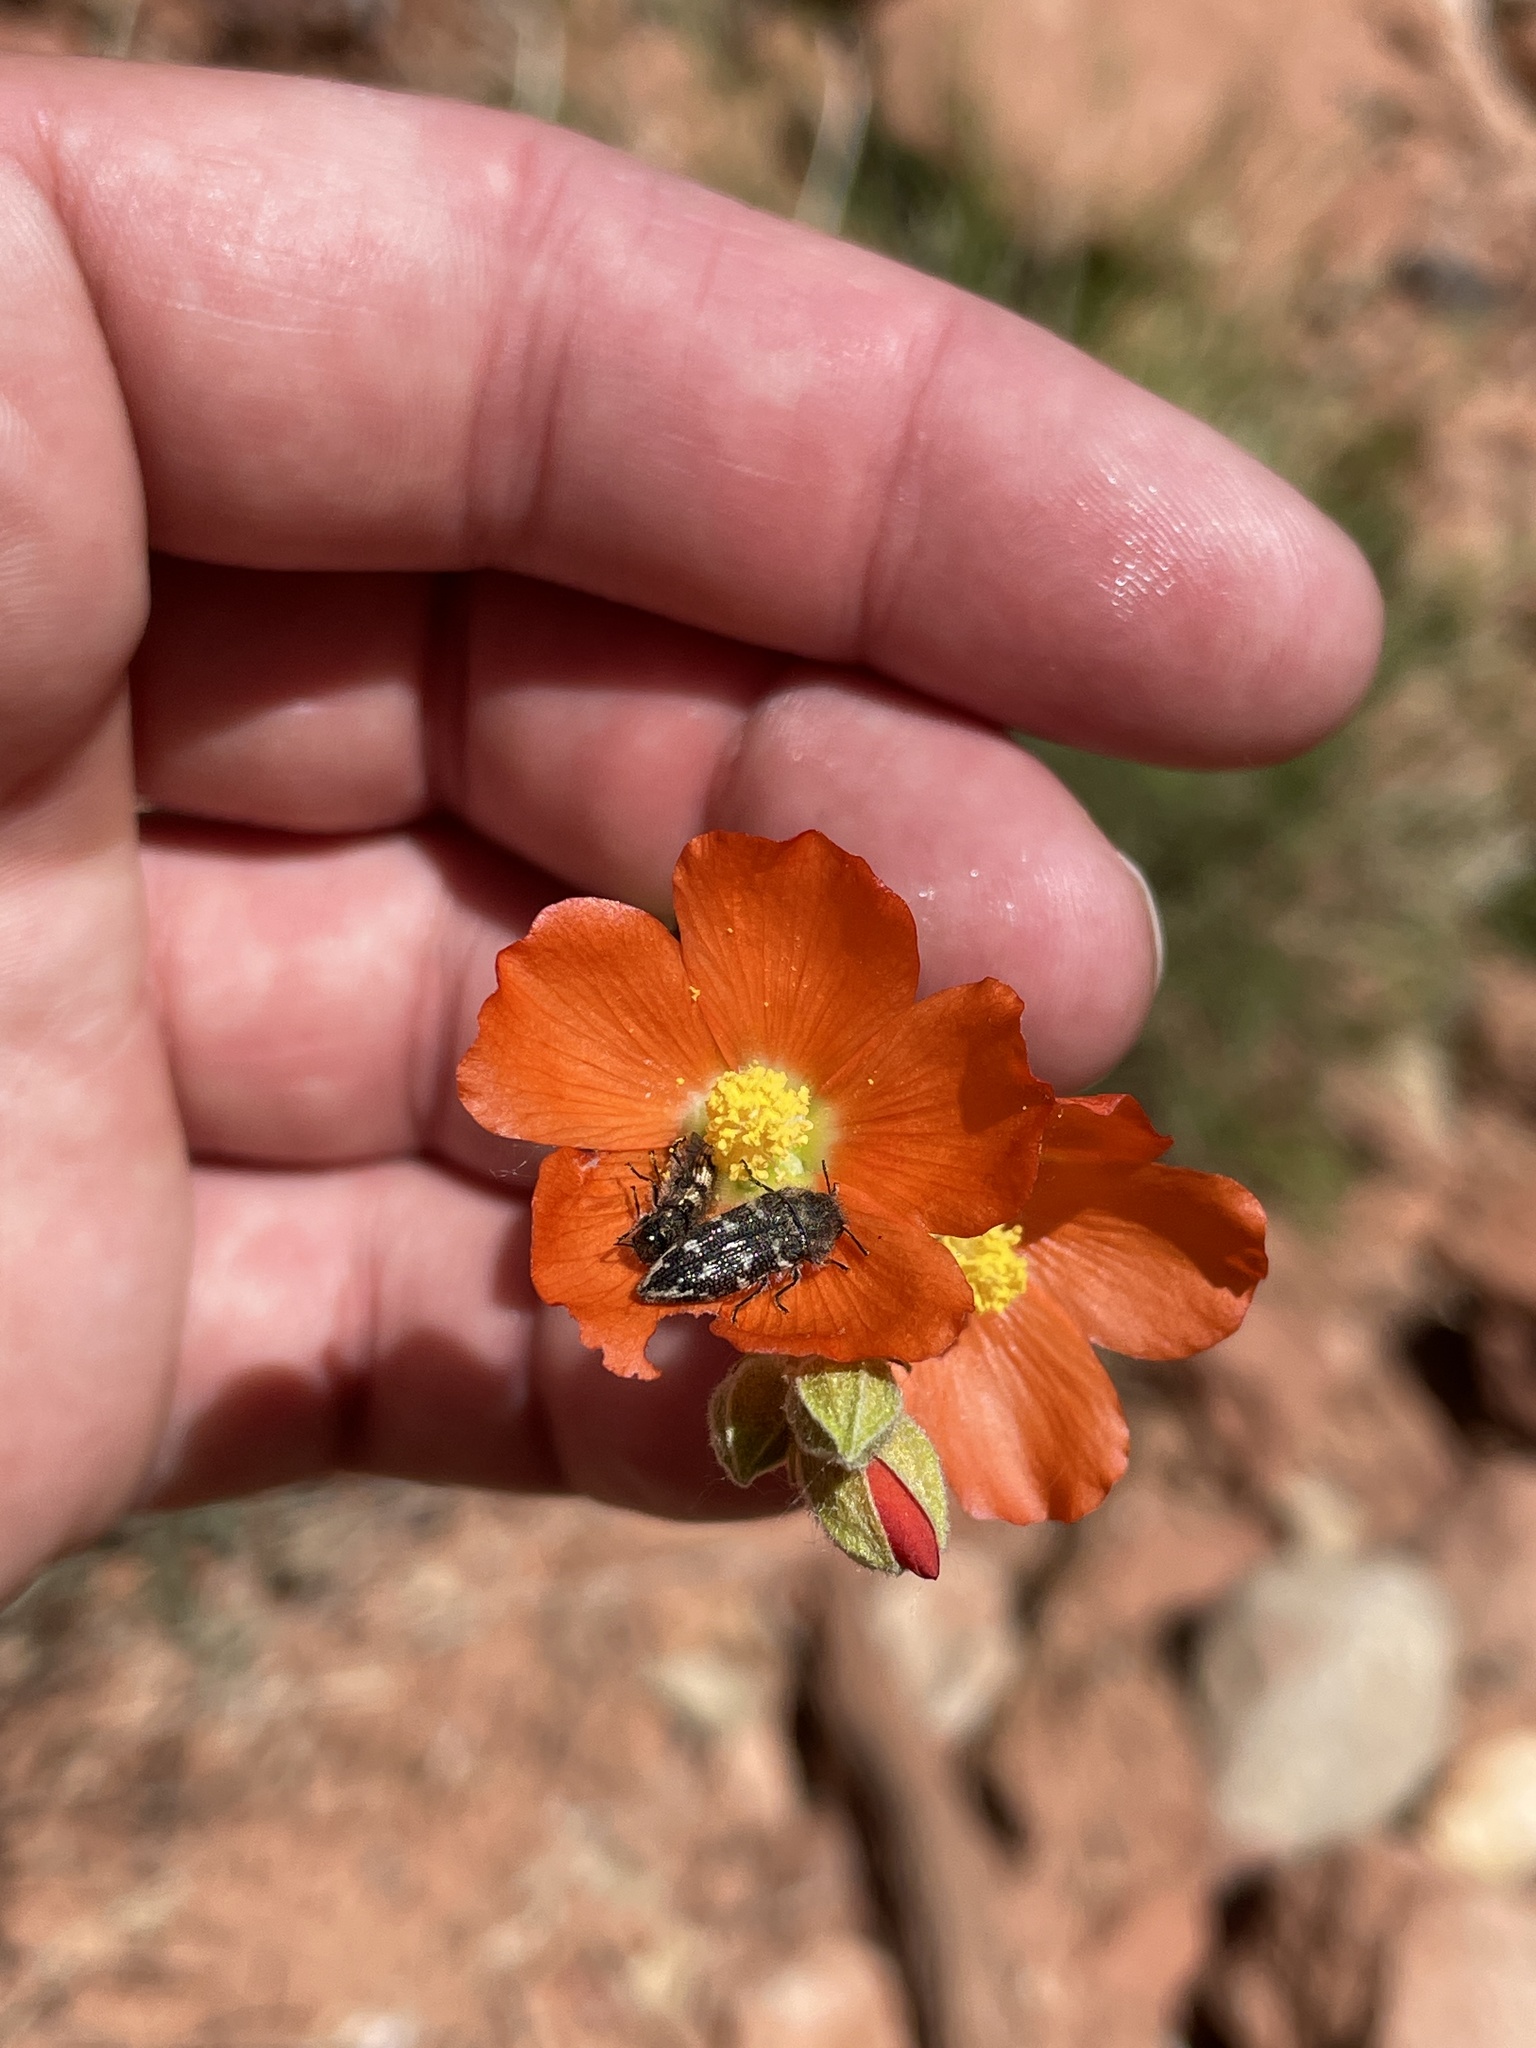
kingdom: Animalia
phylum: Arthropoda
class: Insecta
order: Coleoptera
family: Buprestidae
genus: Acmaeodera
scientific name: Acmaeodera bowditchi
